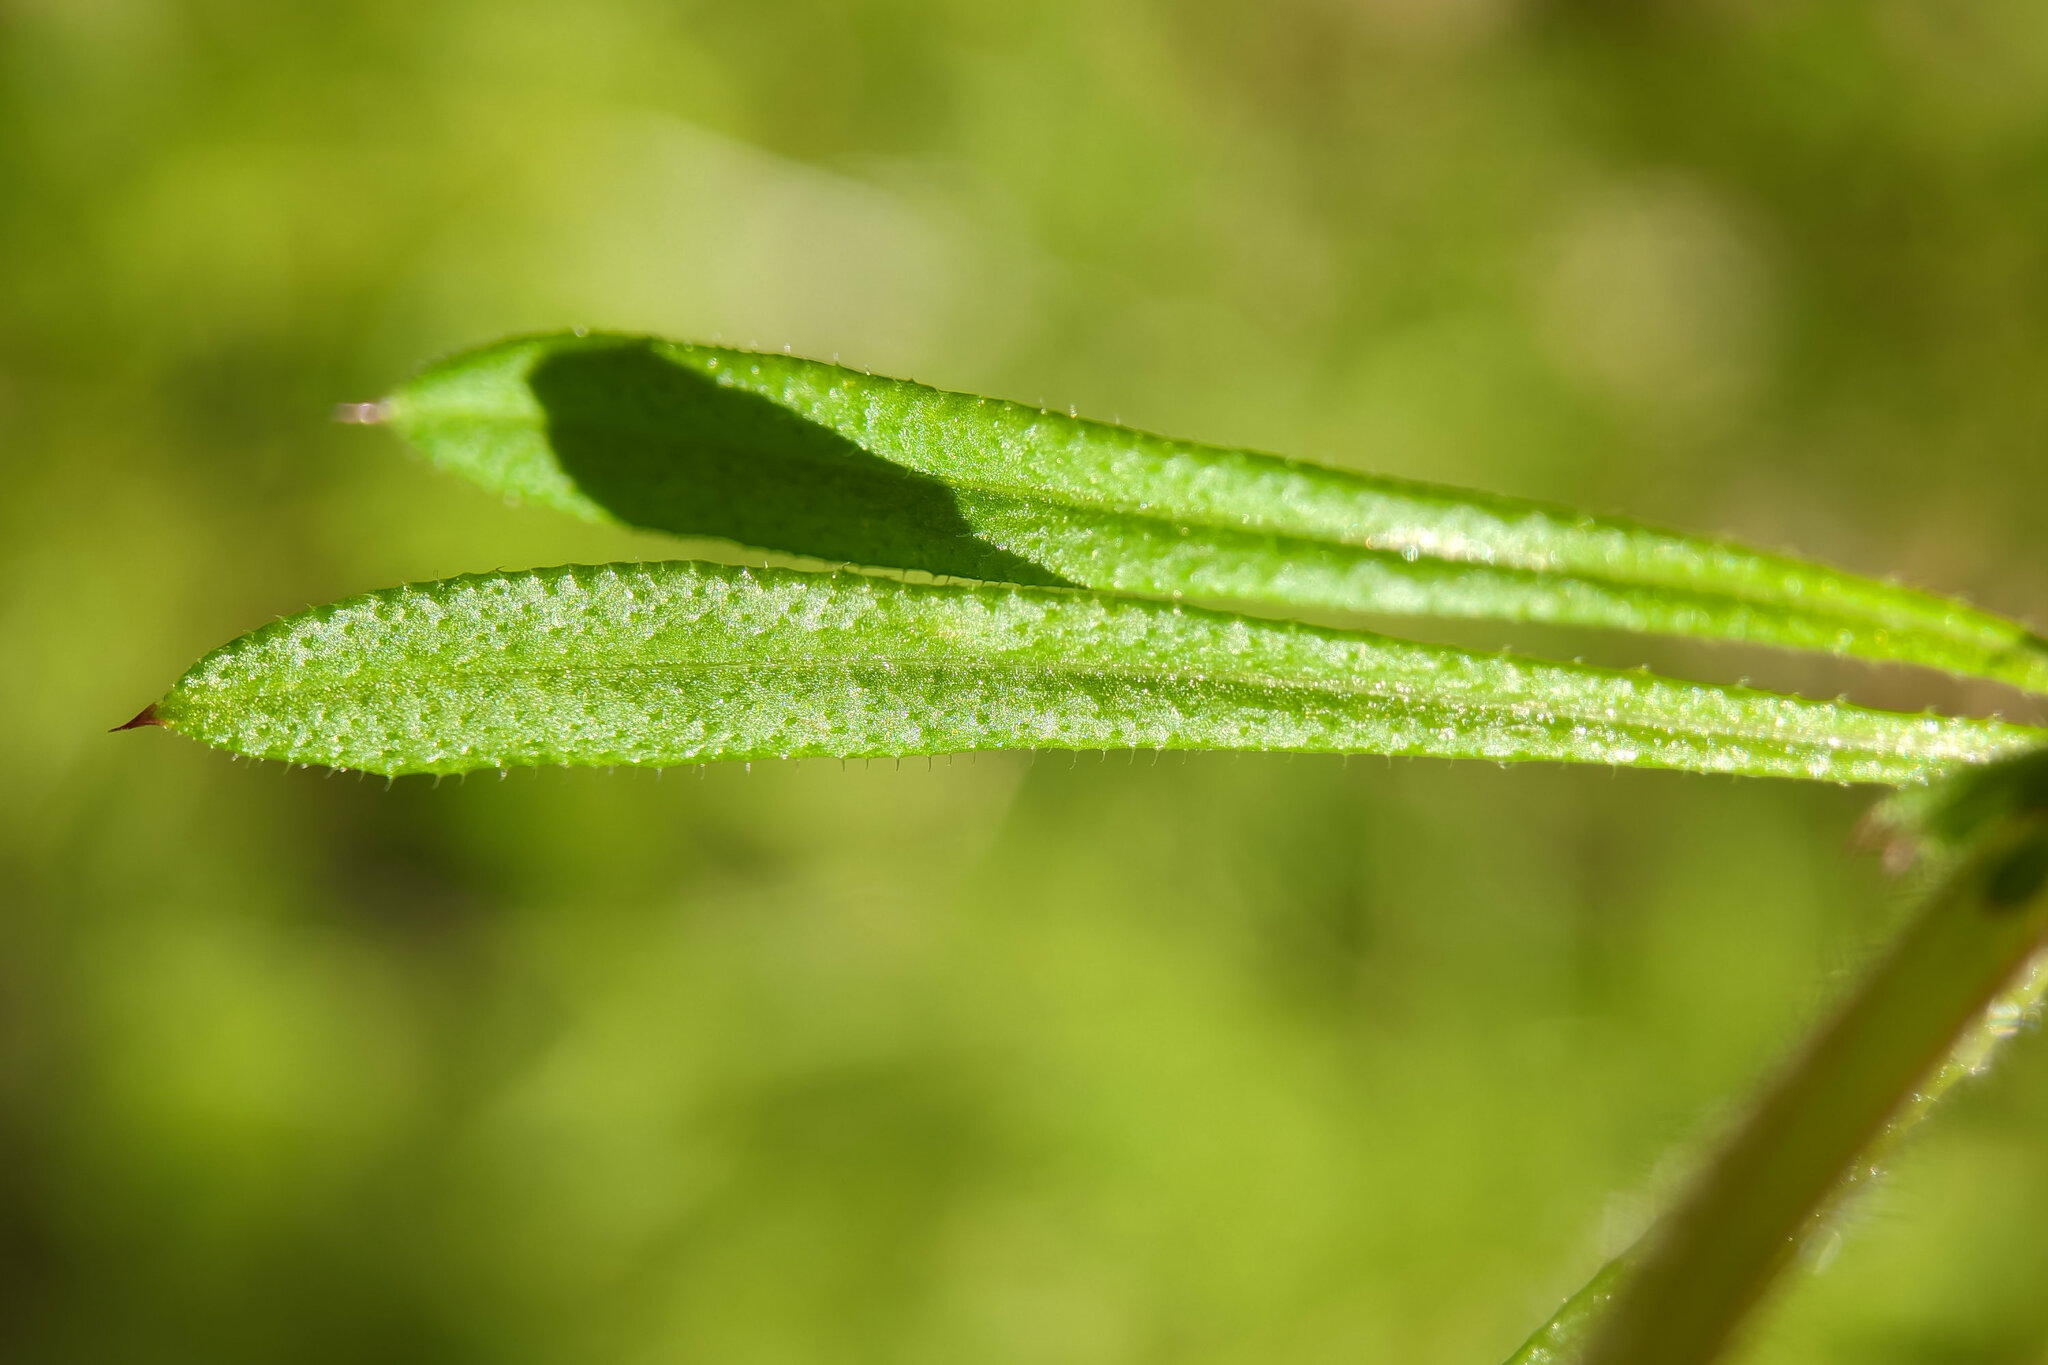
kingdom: Plantae
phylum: Tracheophyta
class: Magnoliopsida
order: Gentianales
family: Rubiaceae
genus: Galium
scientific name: Galium aparine
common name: Cleavers
